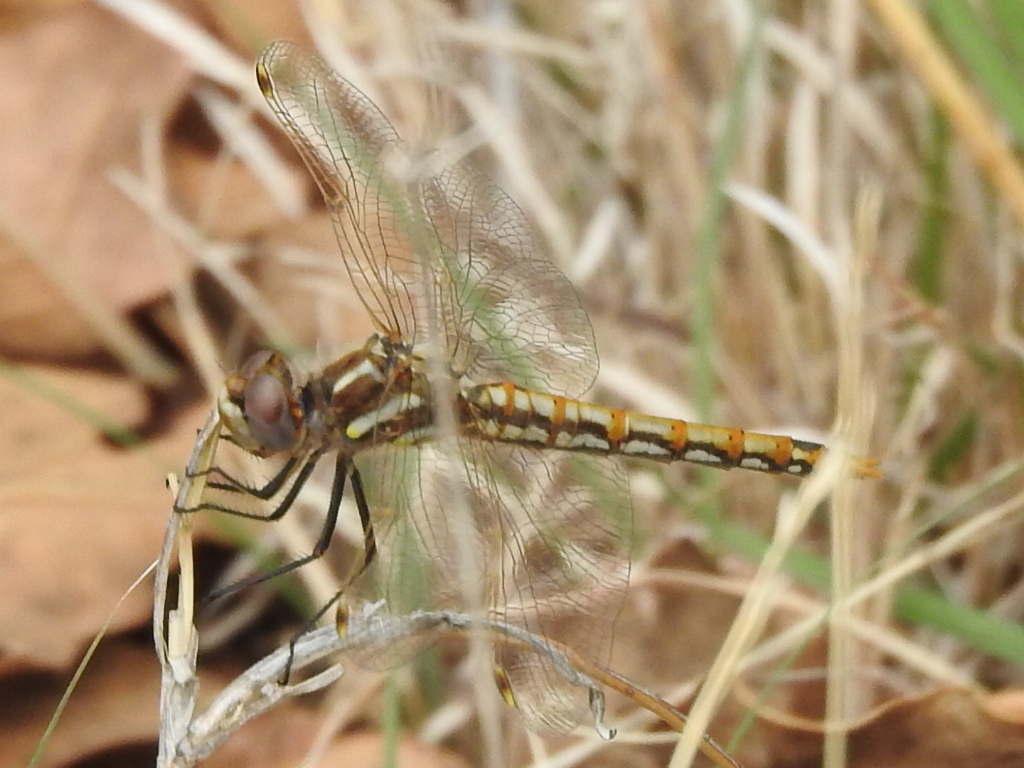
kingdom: Animalia
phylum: Arthropoda
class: Insecta
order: Odonata
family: Libellulidae
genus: Sympetrum
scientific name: Sympetrum corruptum
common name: Variegated meadowhawk
